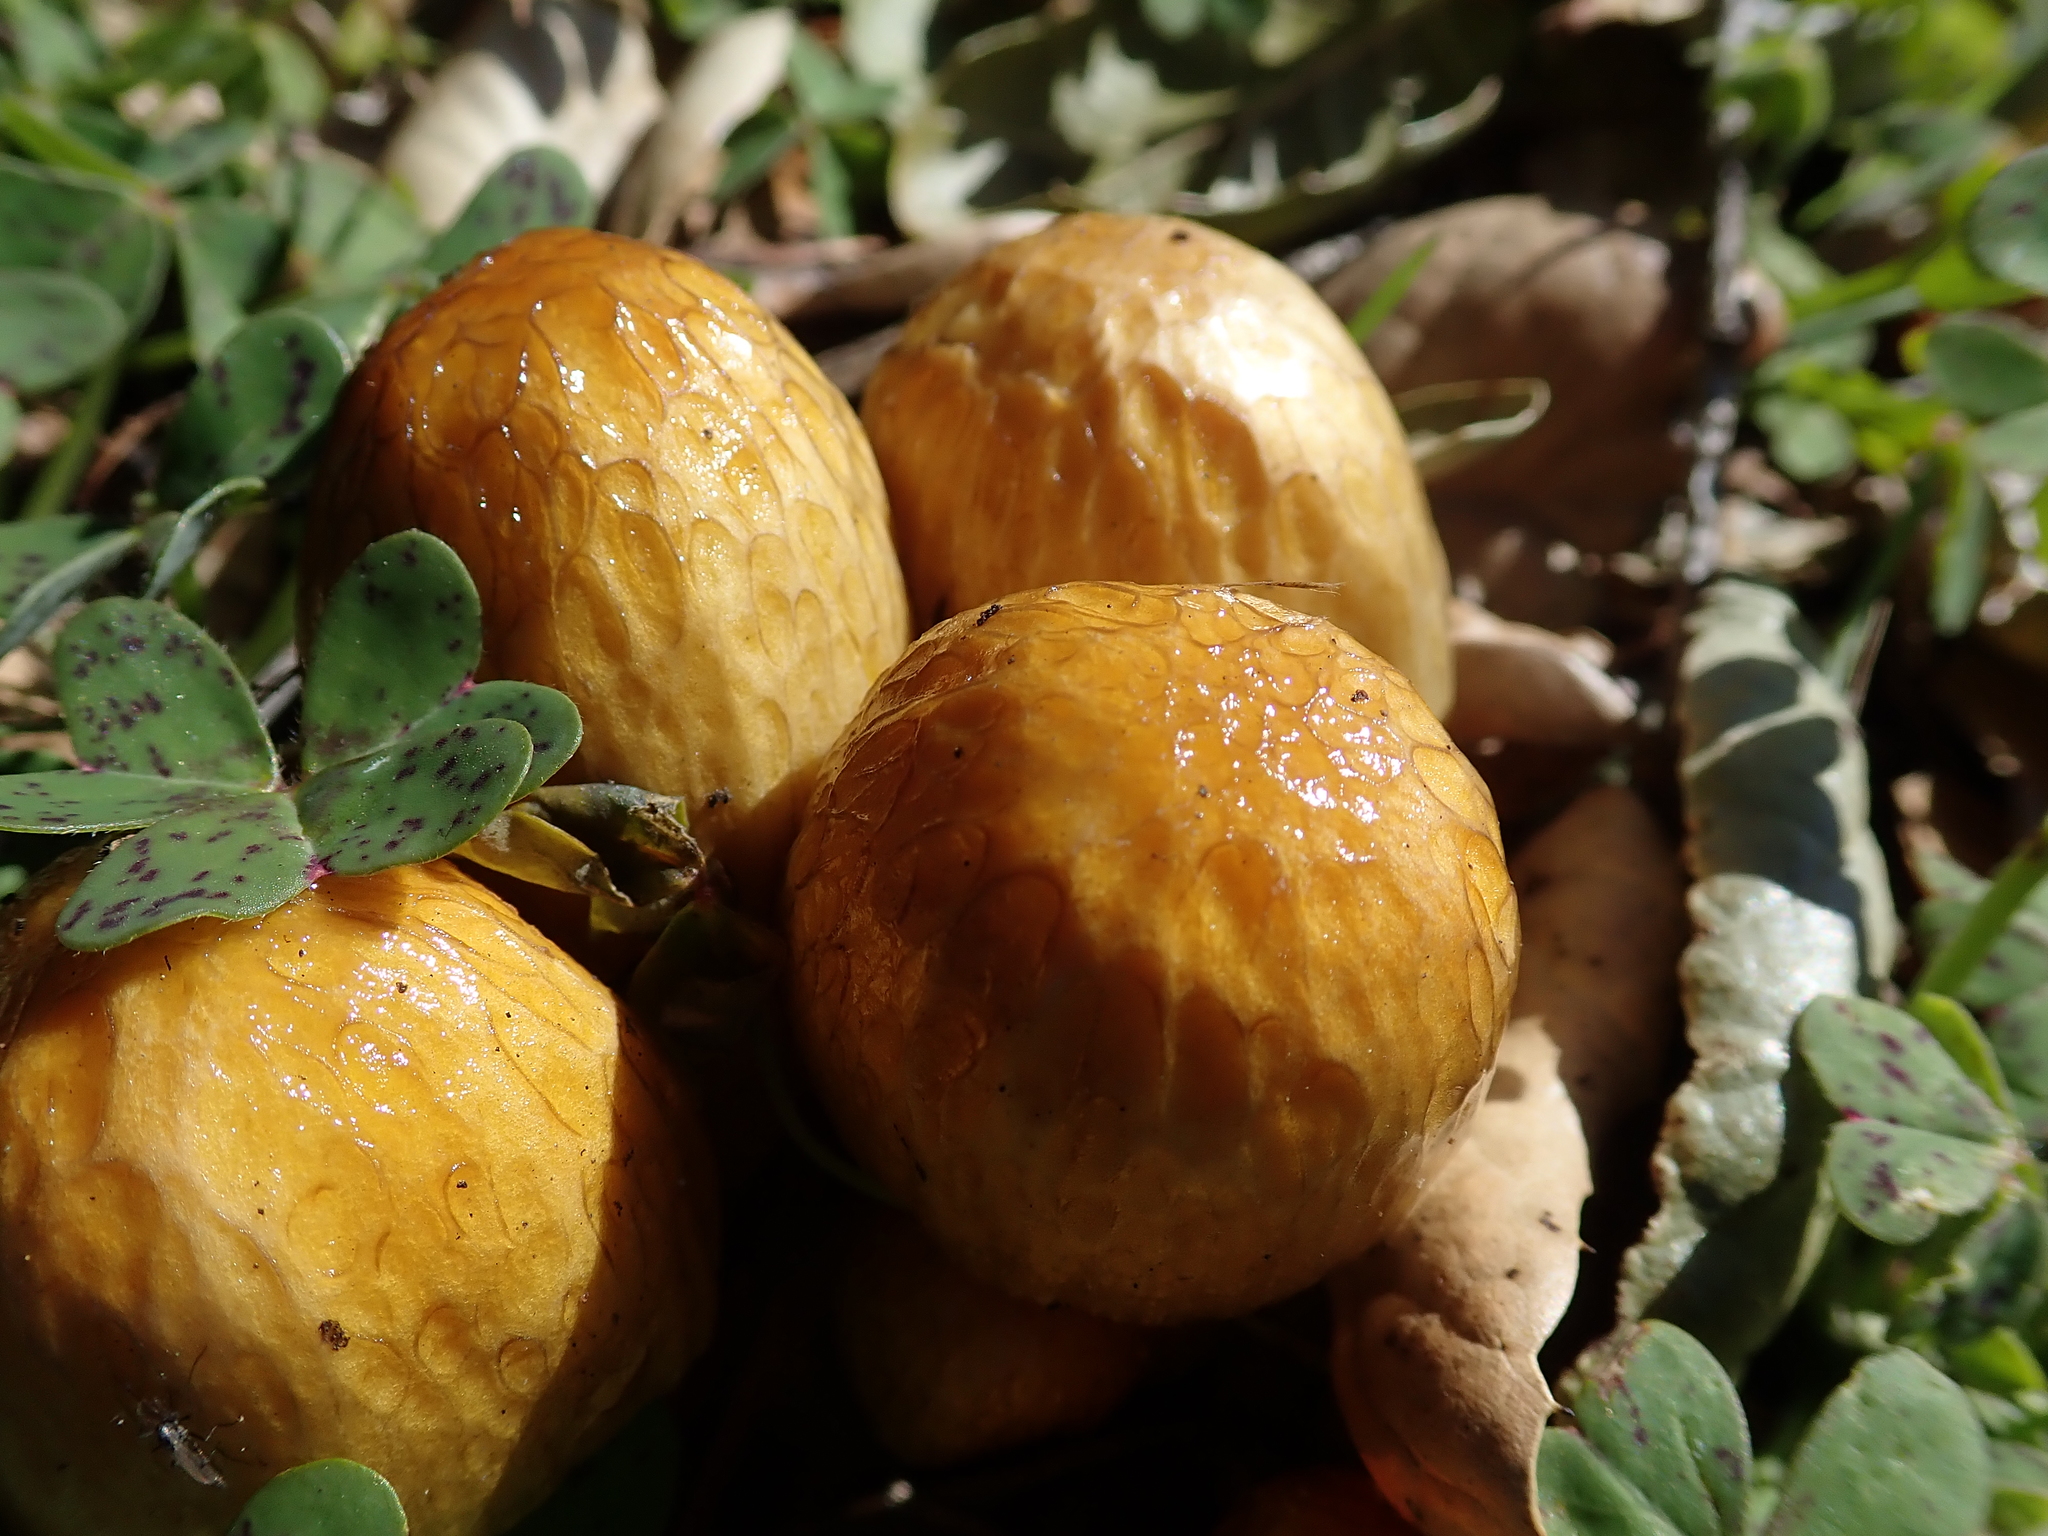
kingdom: Fungi
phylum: Basidiomycota
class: Agaricomycetes
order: Agaricales
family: Bolbitiaceae
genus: Bolbitius
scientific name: Bolbitius titubans
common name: Yellow fieldcap
